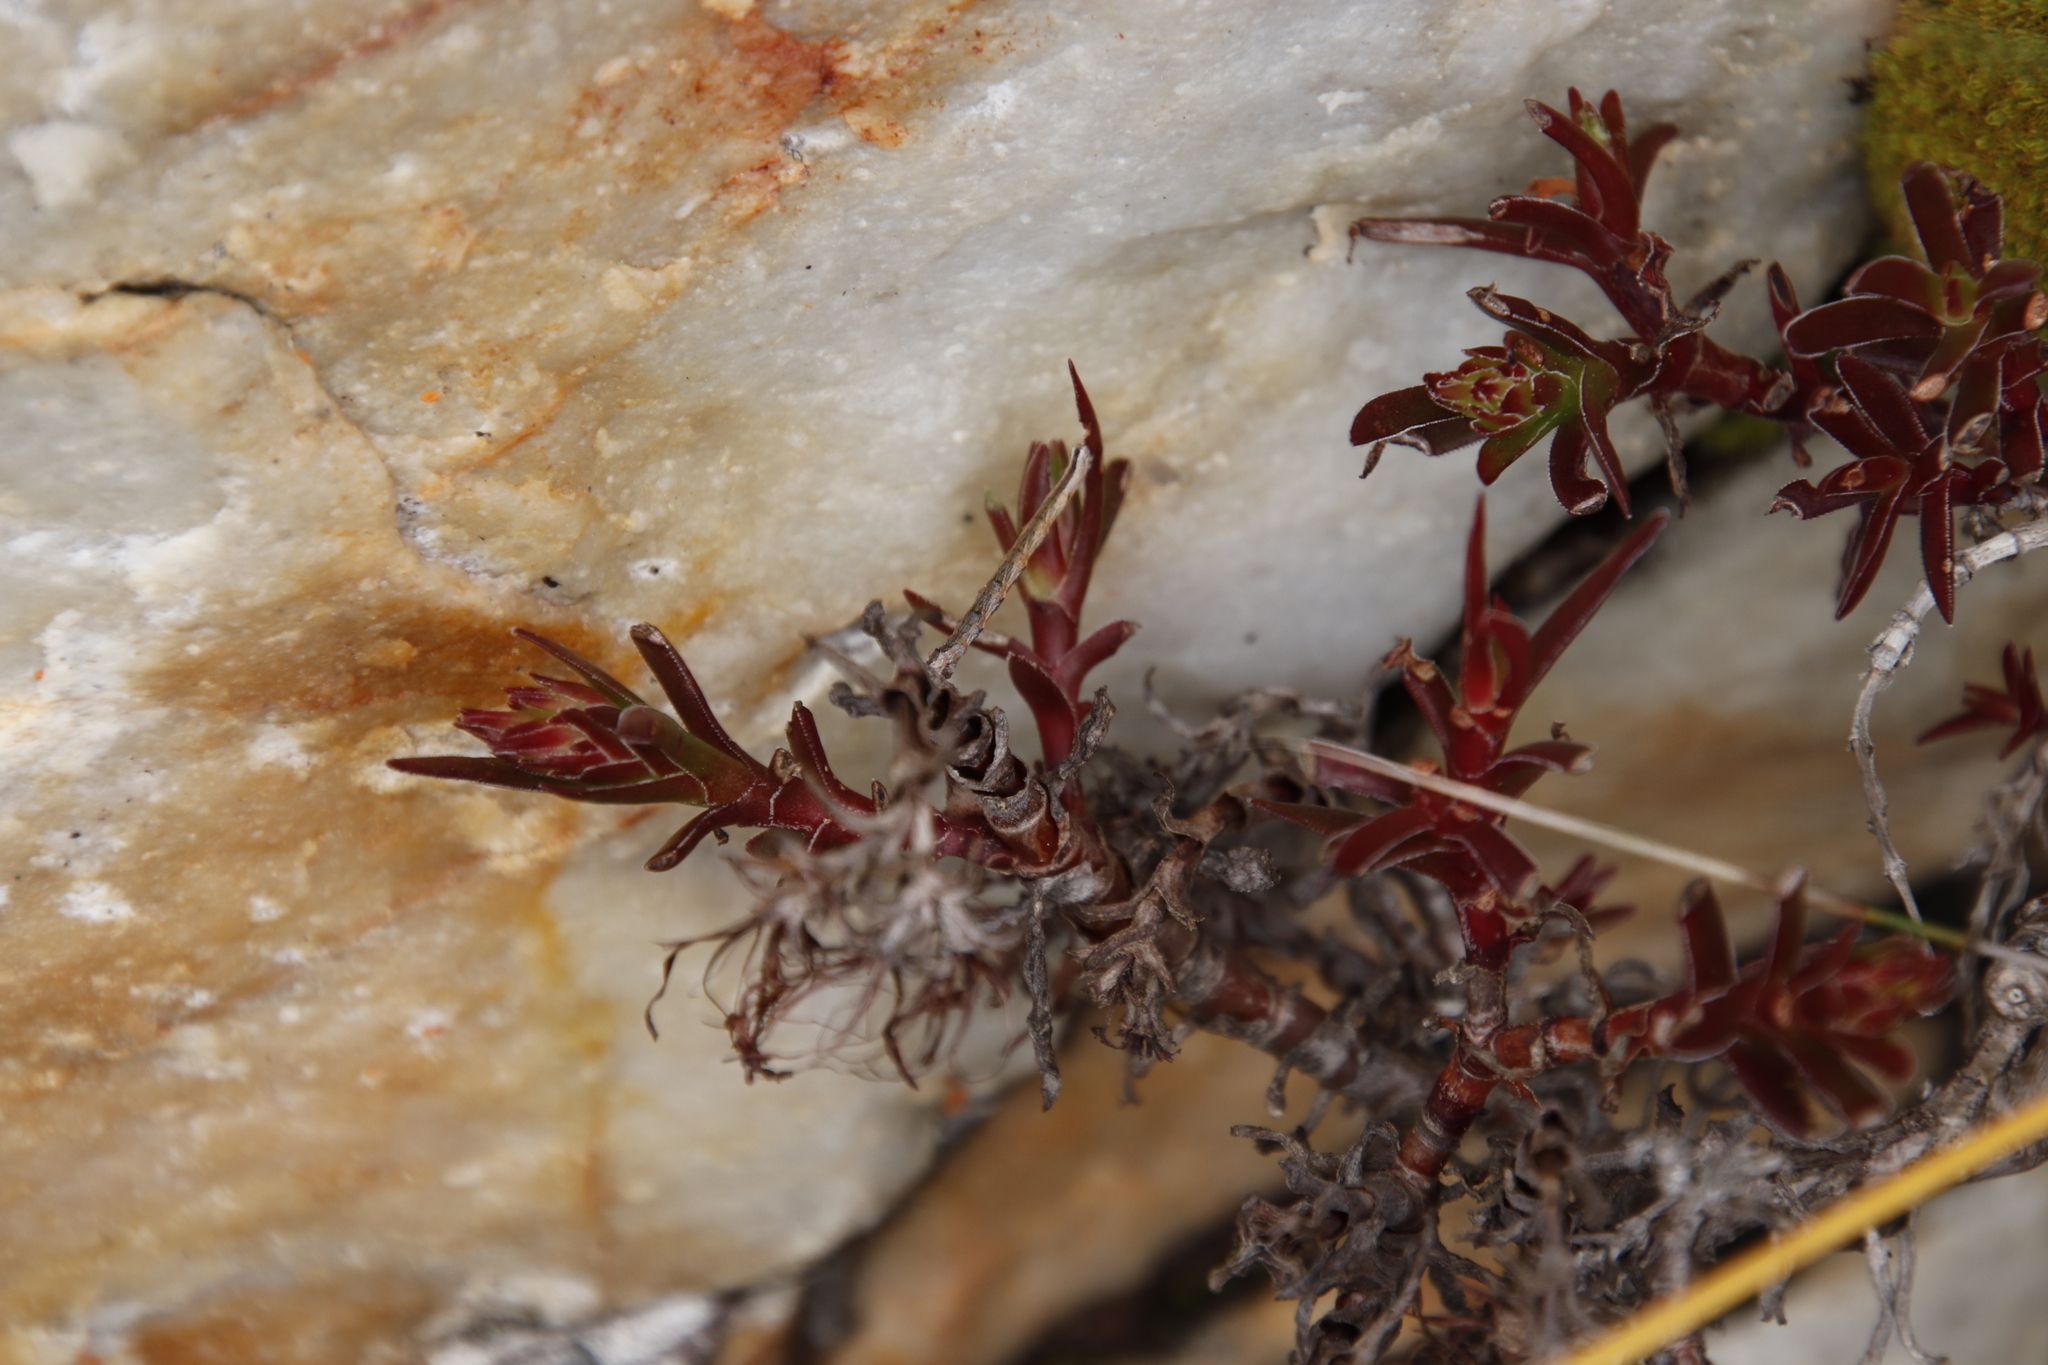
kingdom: Plantae
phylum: Tracheophyta
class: Magnoliopsida
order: Saxifragales
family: Crassulaceae
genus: Crassula
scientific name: Crassula fascicularis
